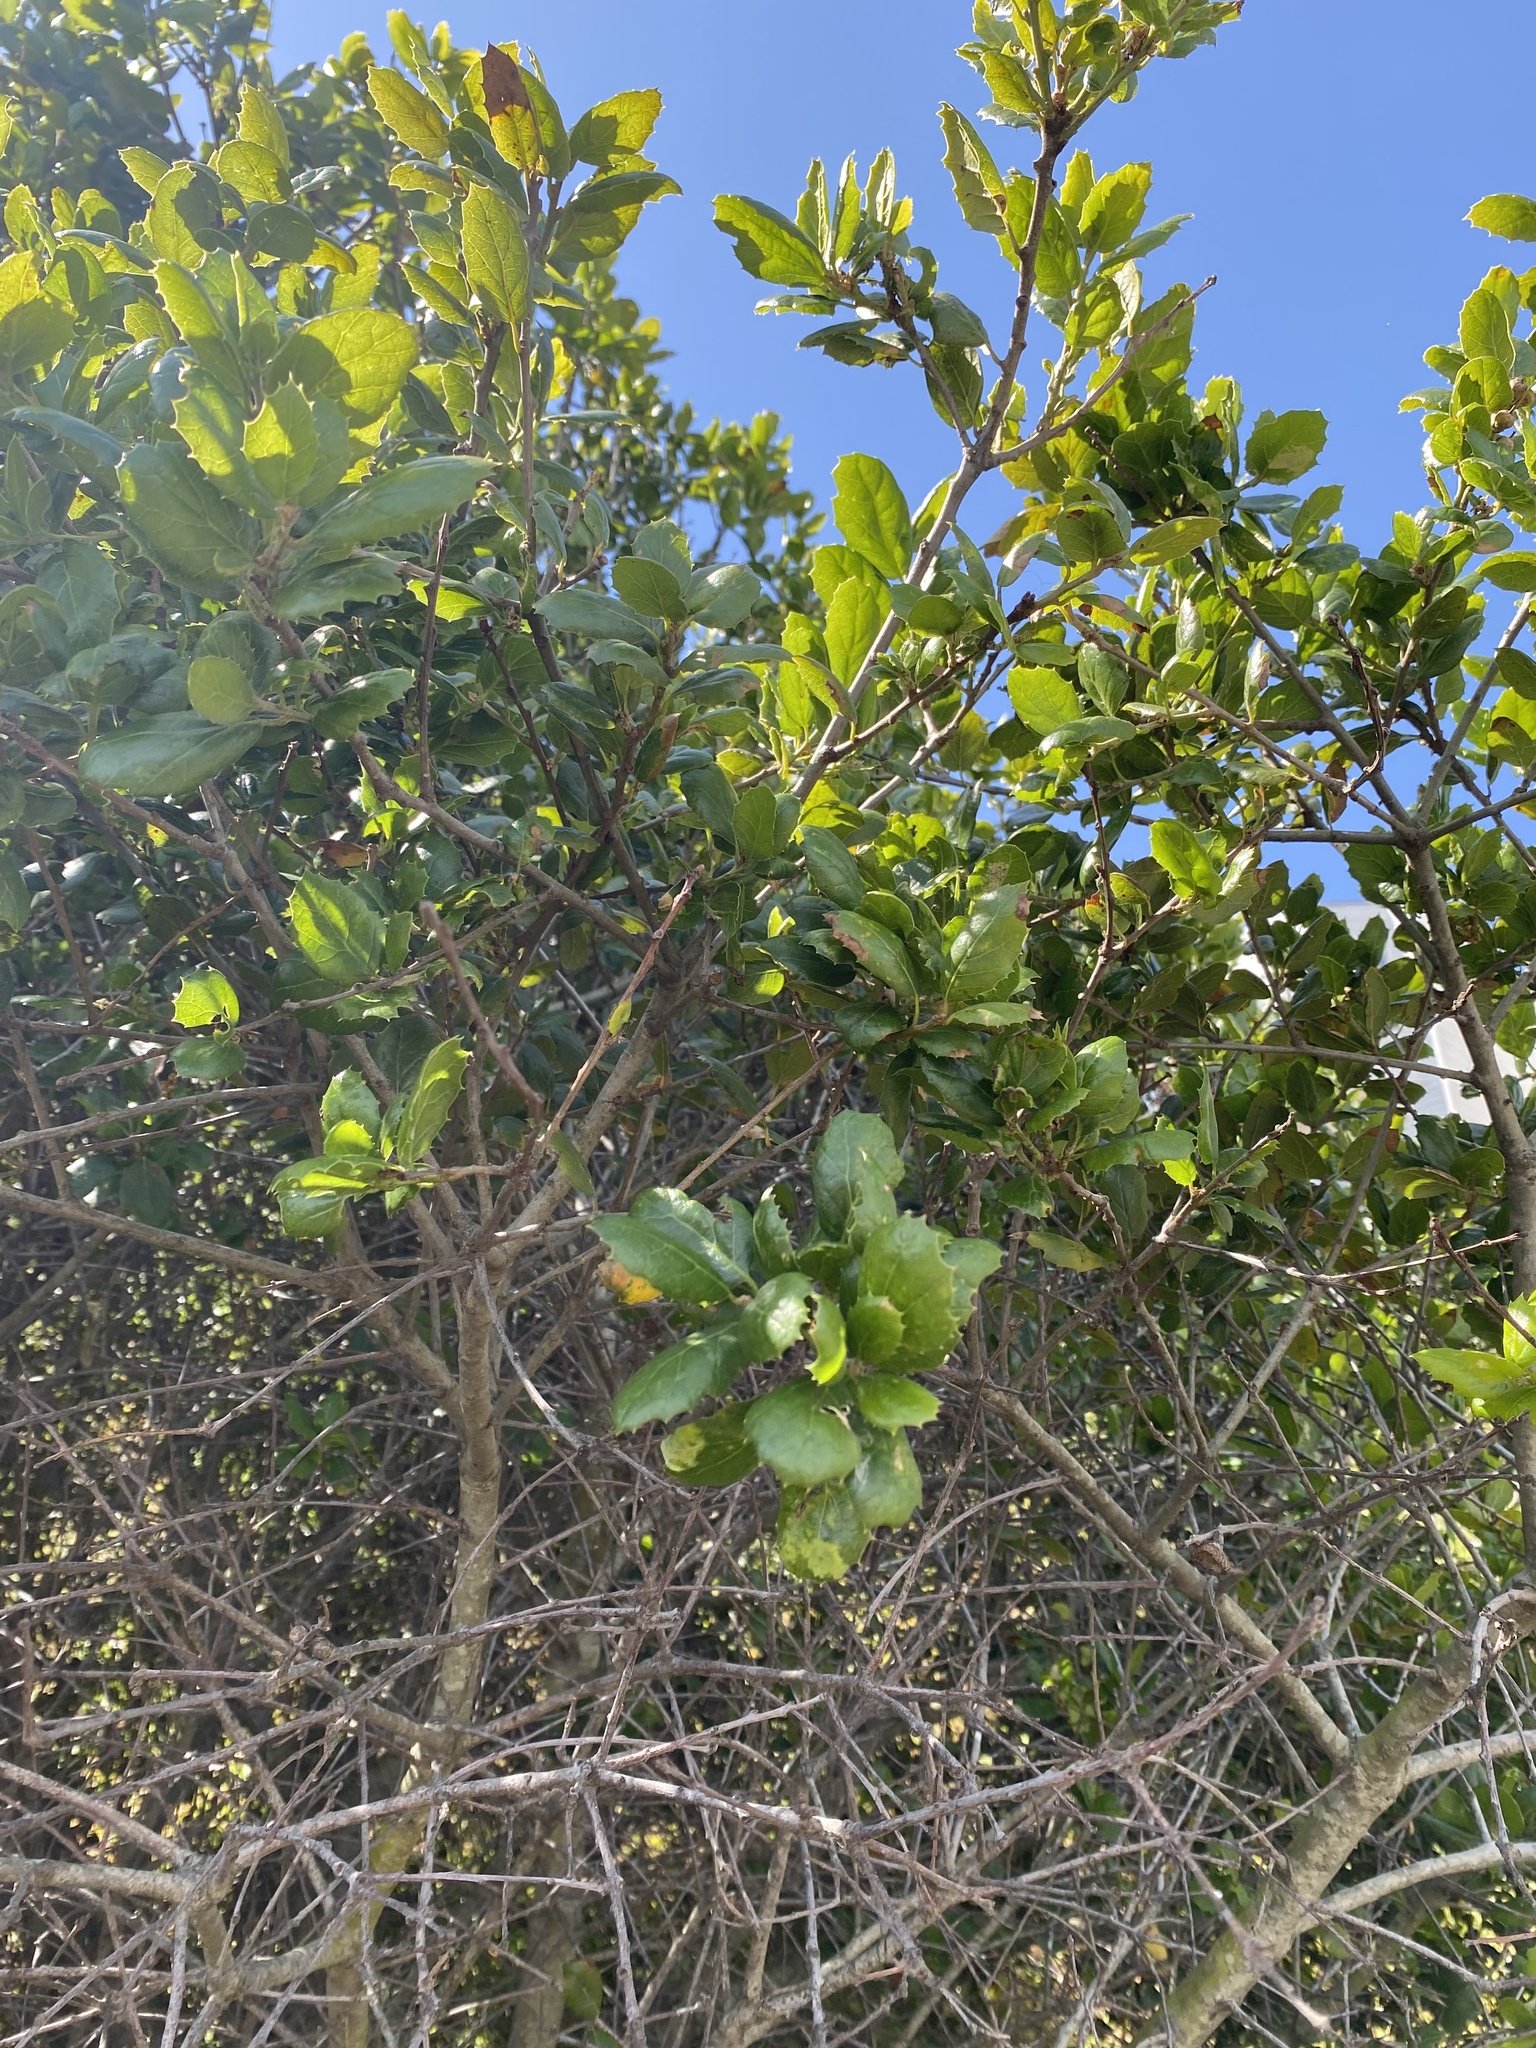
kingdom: Plantae
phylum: Tracheophyta
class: Magnoliopsida
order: Fagales
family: Fagaceae
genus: Quercus
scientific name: Quercus agrifolia
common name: California live oak
